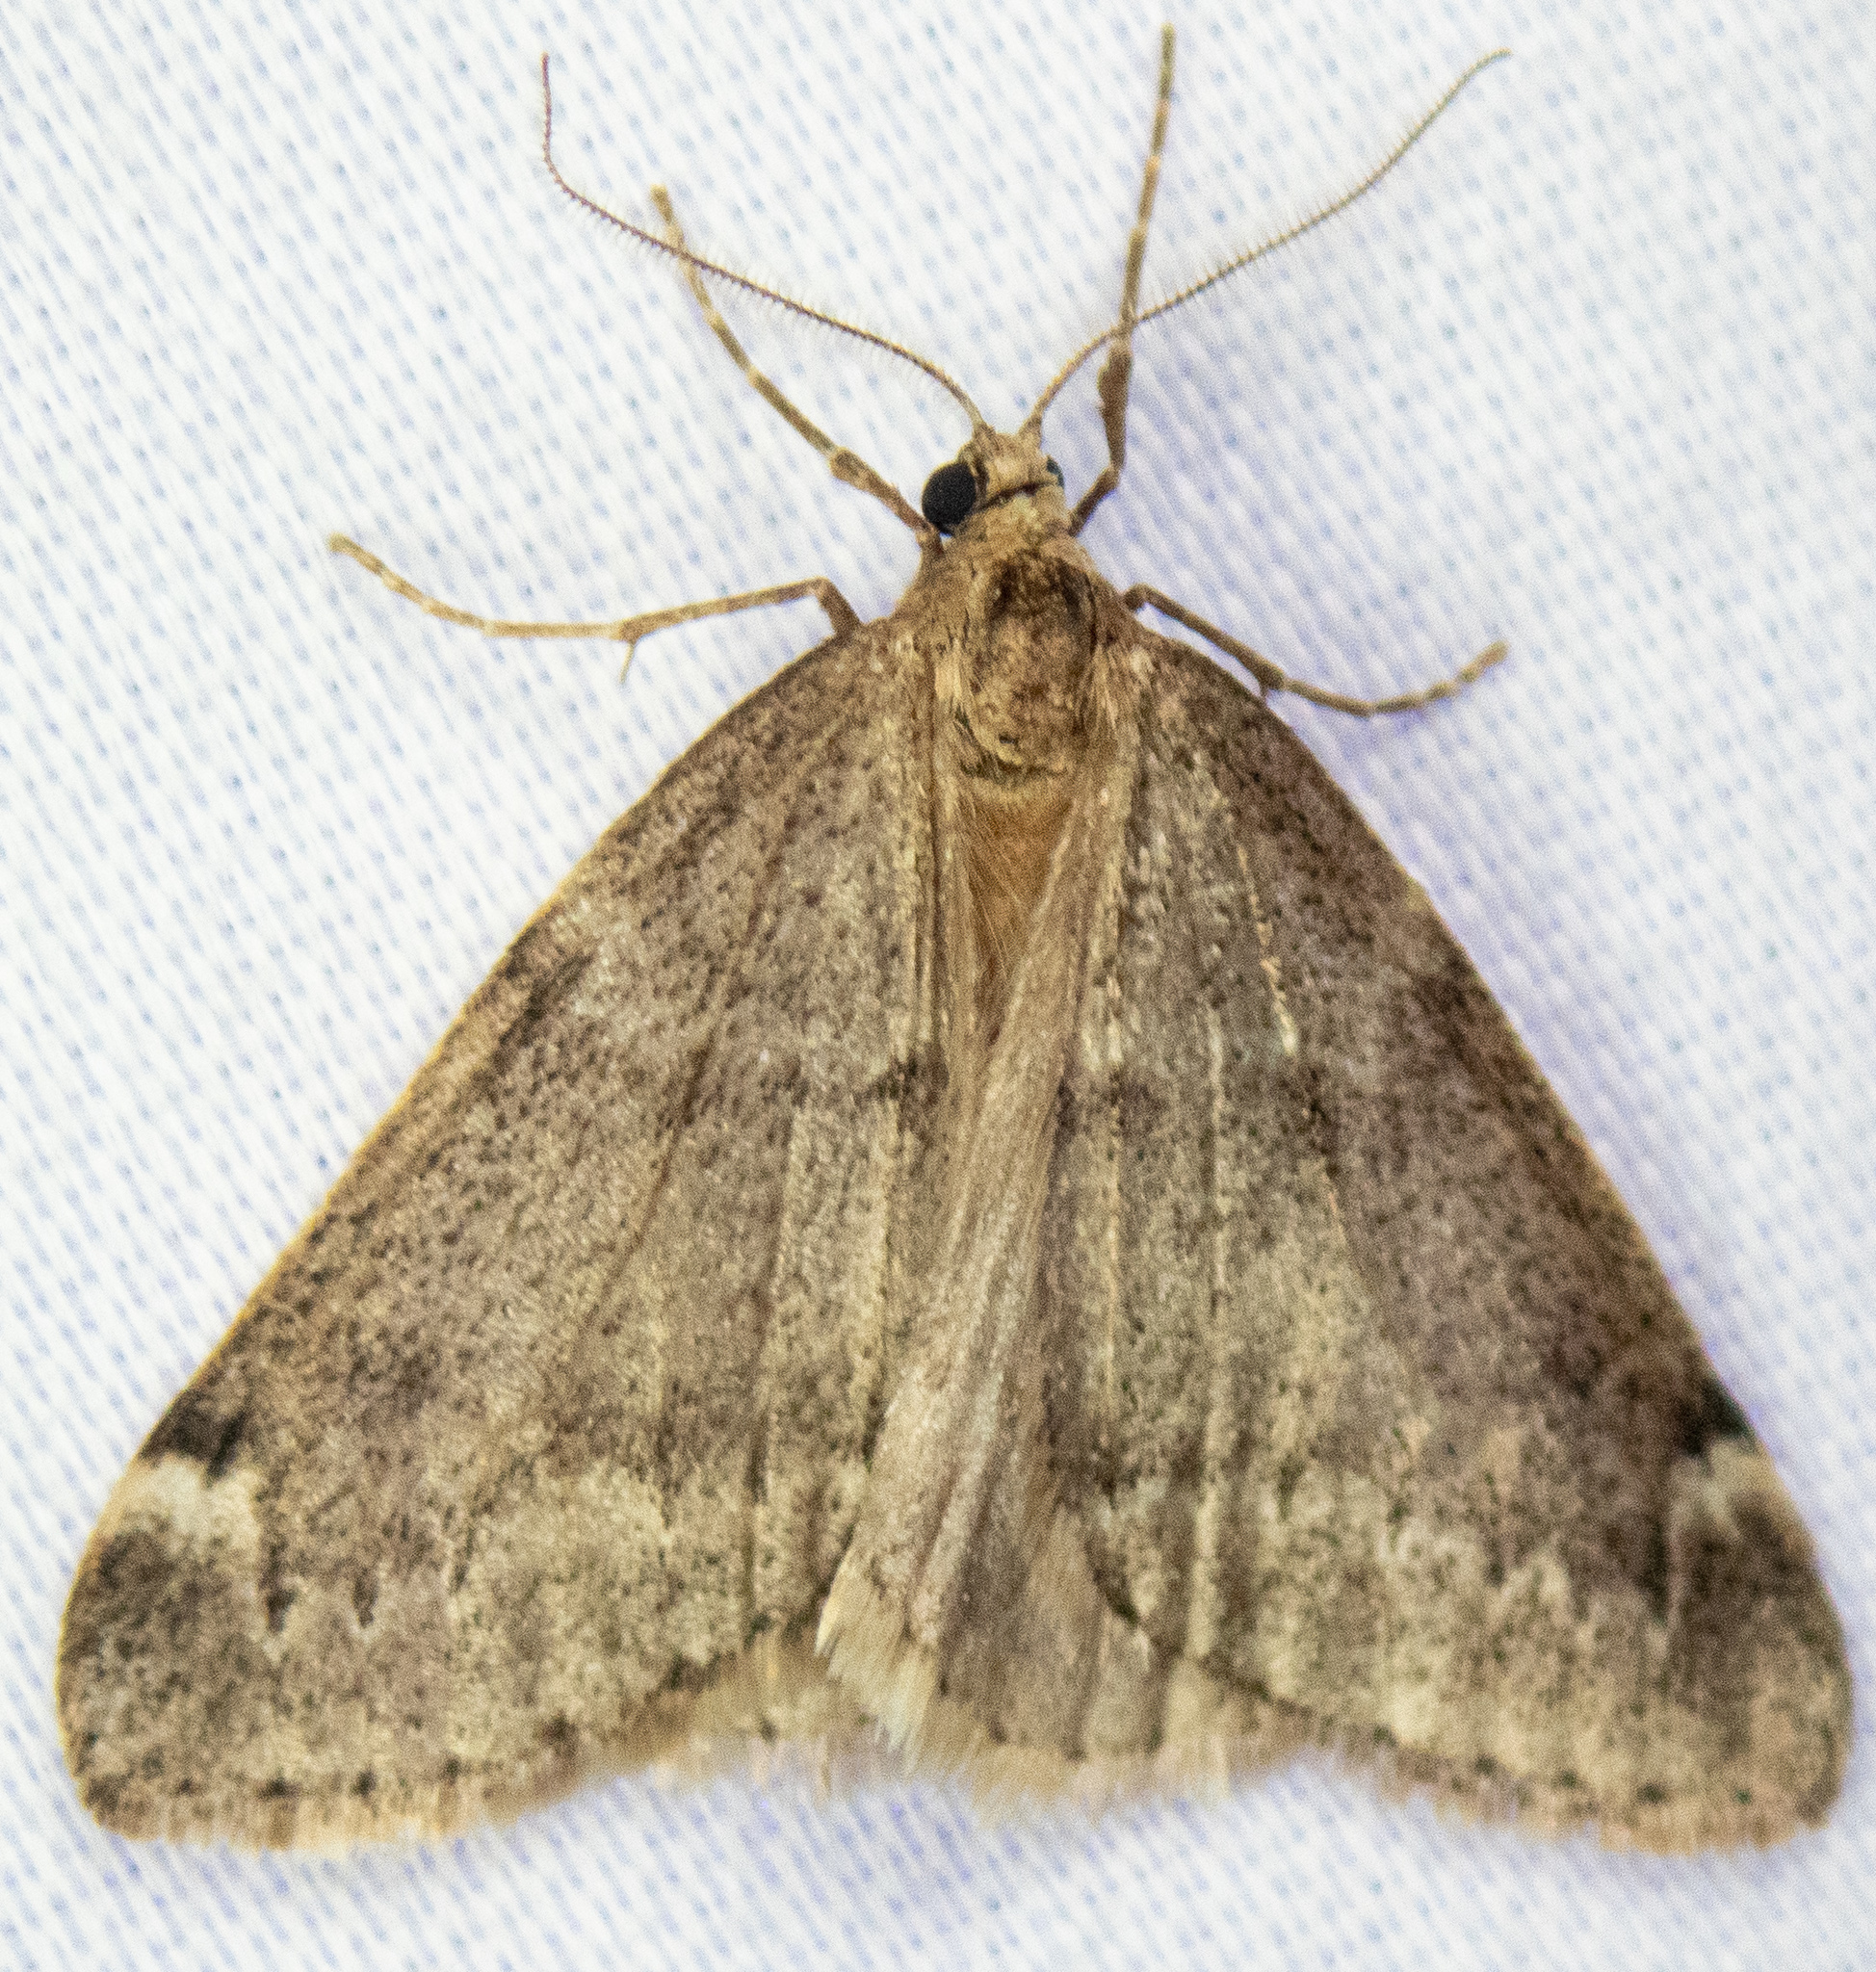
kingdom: Animalia
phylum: Arthropoda
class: Insecta
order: Lepidoptera
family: Geometridae
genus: Alsophila
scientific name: Alsophila pometaria
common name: Fall cankerworm
